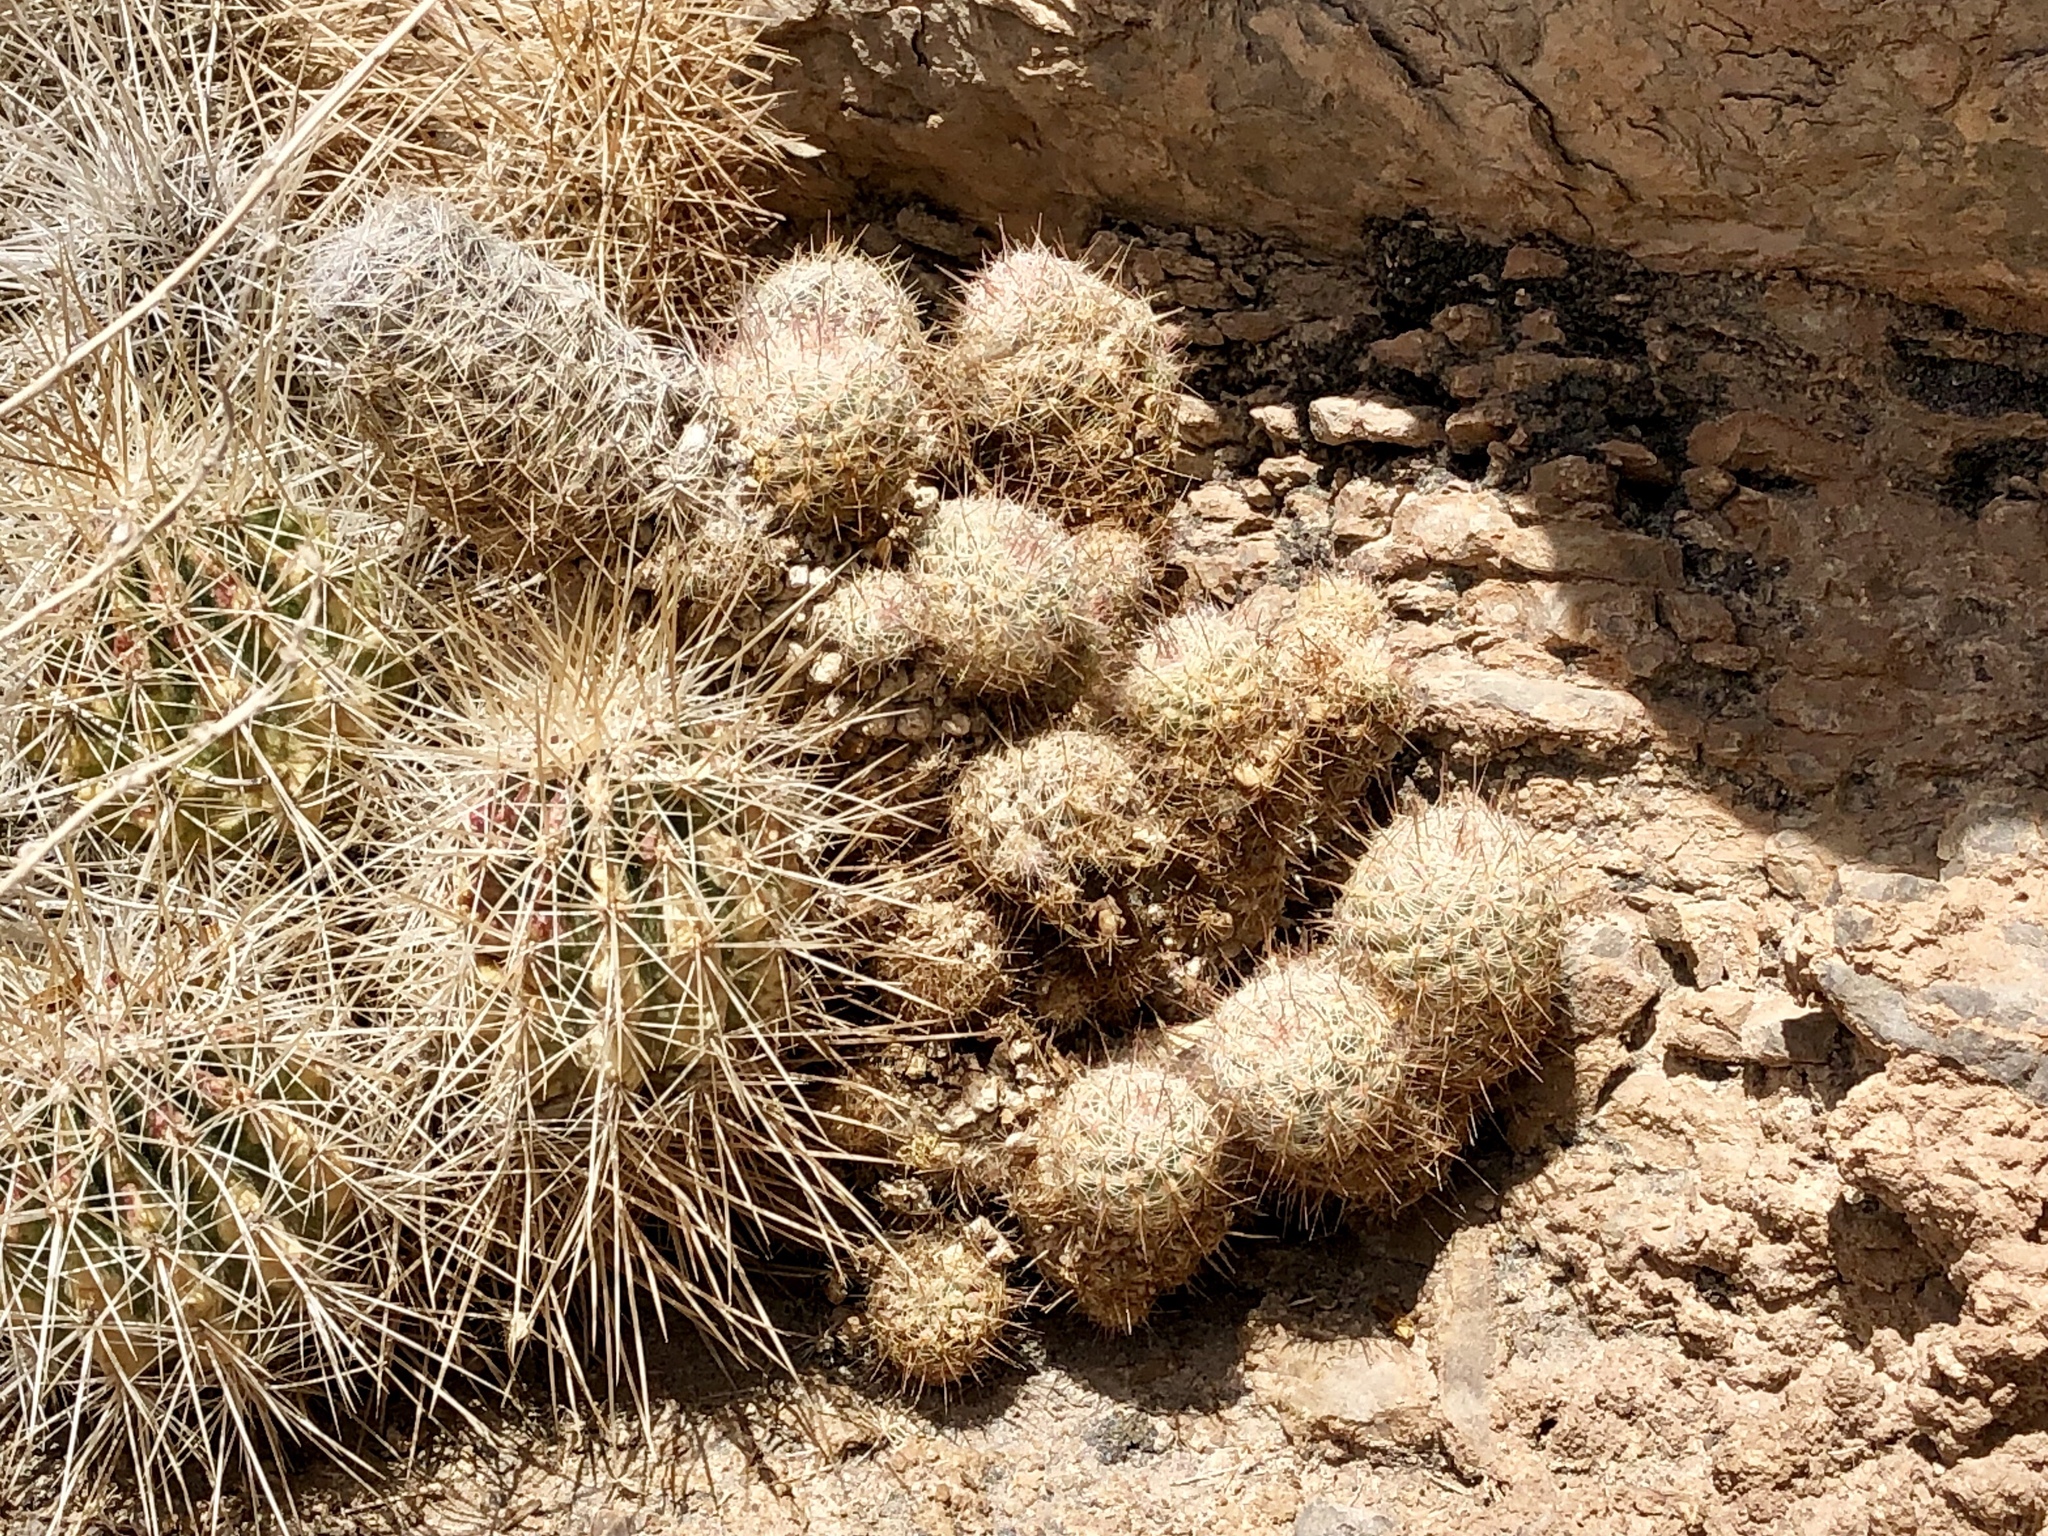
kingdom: Plantae
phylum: Tracheophyta
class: Magnoliopsida
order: Caryophyllales
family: Cactaceae
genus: Pelecyphora
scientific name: Pelecyphora tuberculosa
